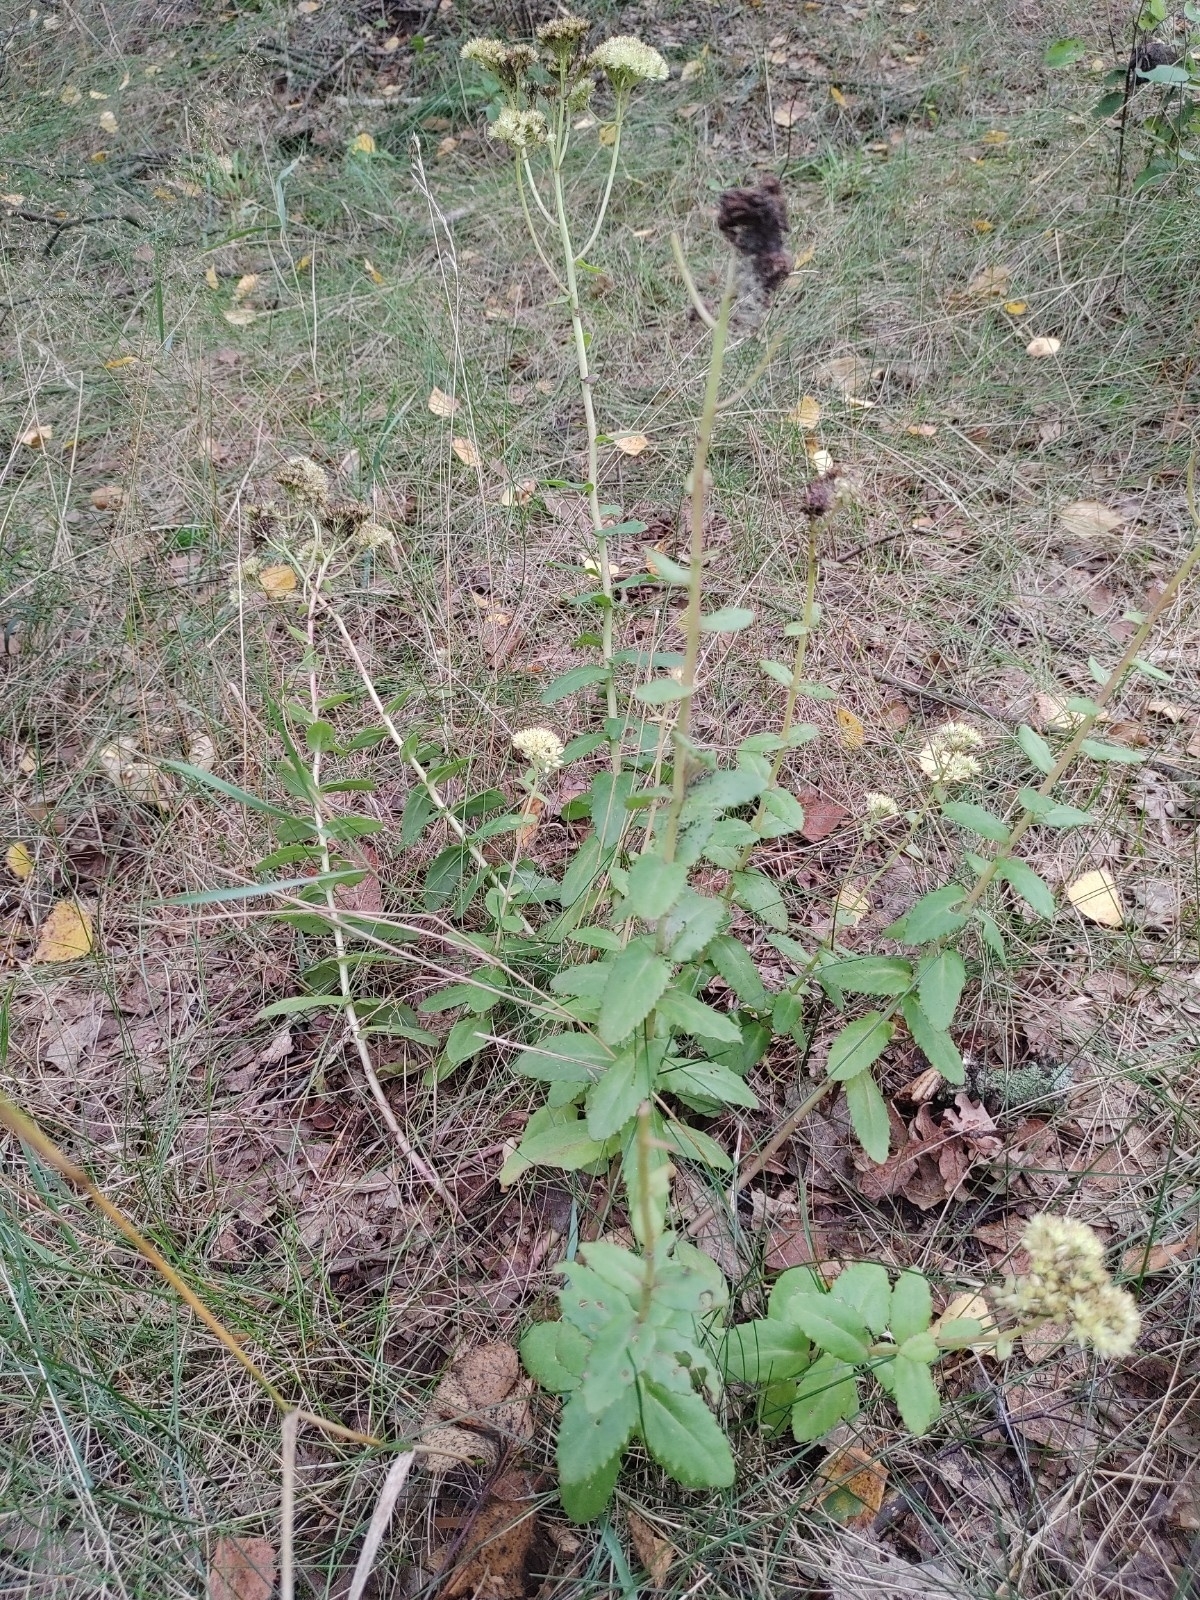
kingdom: Plantae
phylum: Tracheophyta
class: Magnoliopsida
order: Saxifragales
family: Crassulaceae
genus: Hylotelephium
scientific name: Hylotelephium maximum
